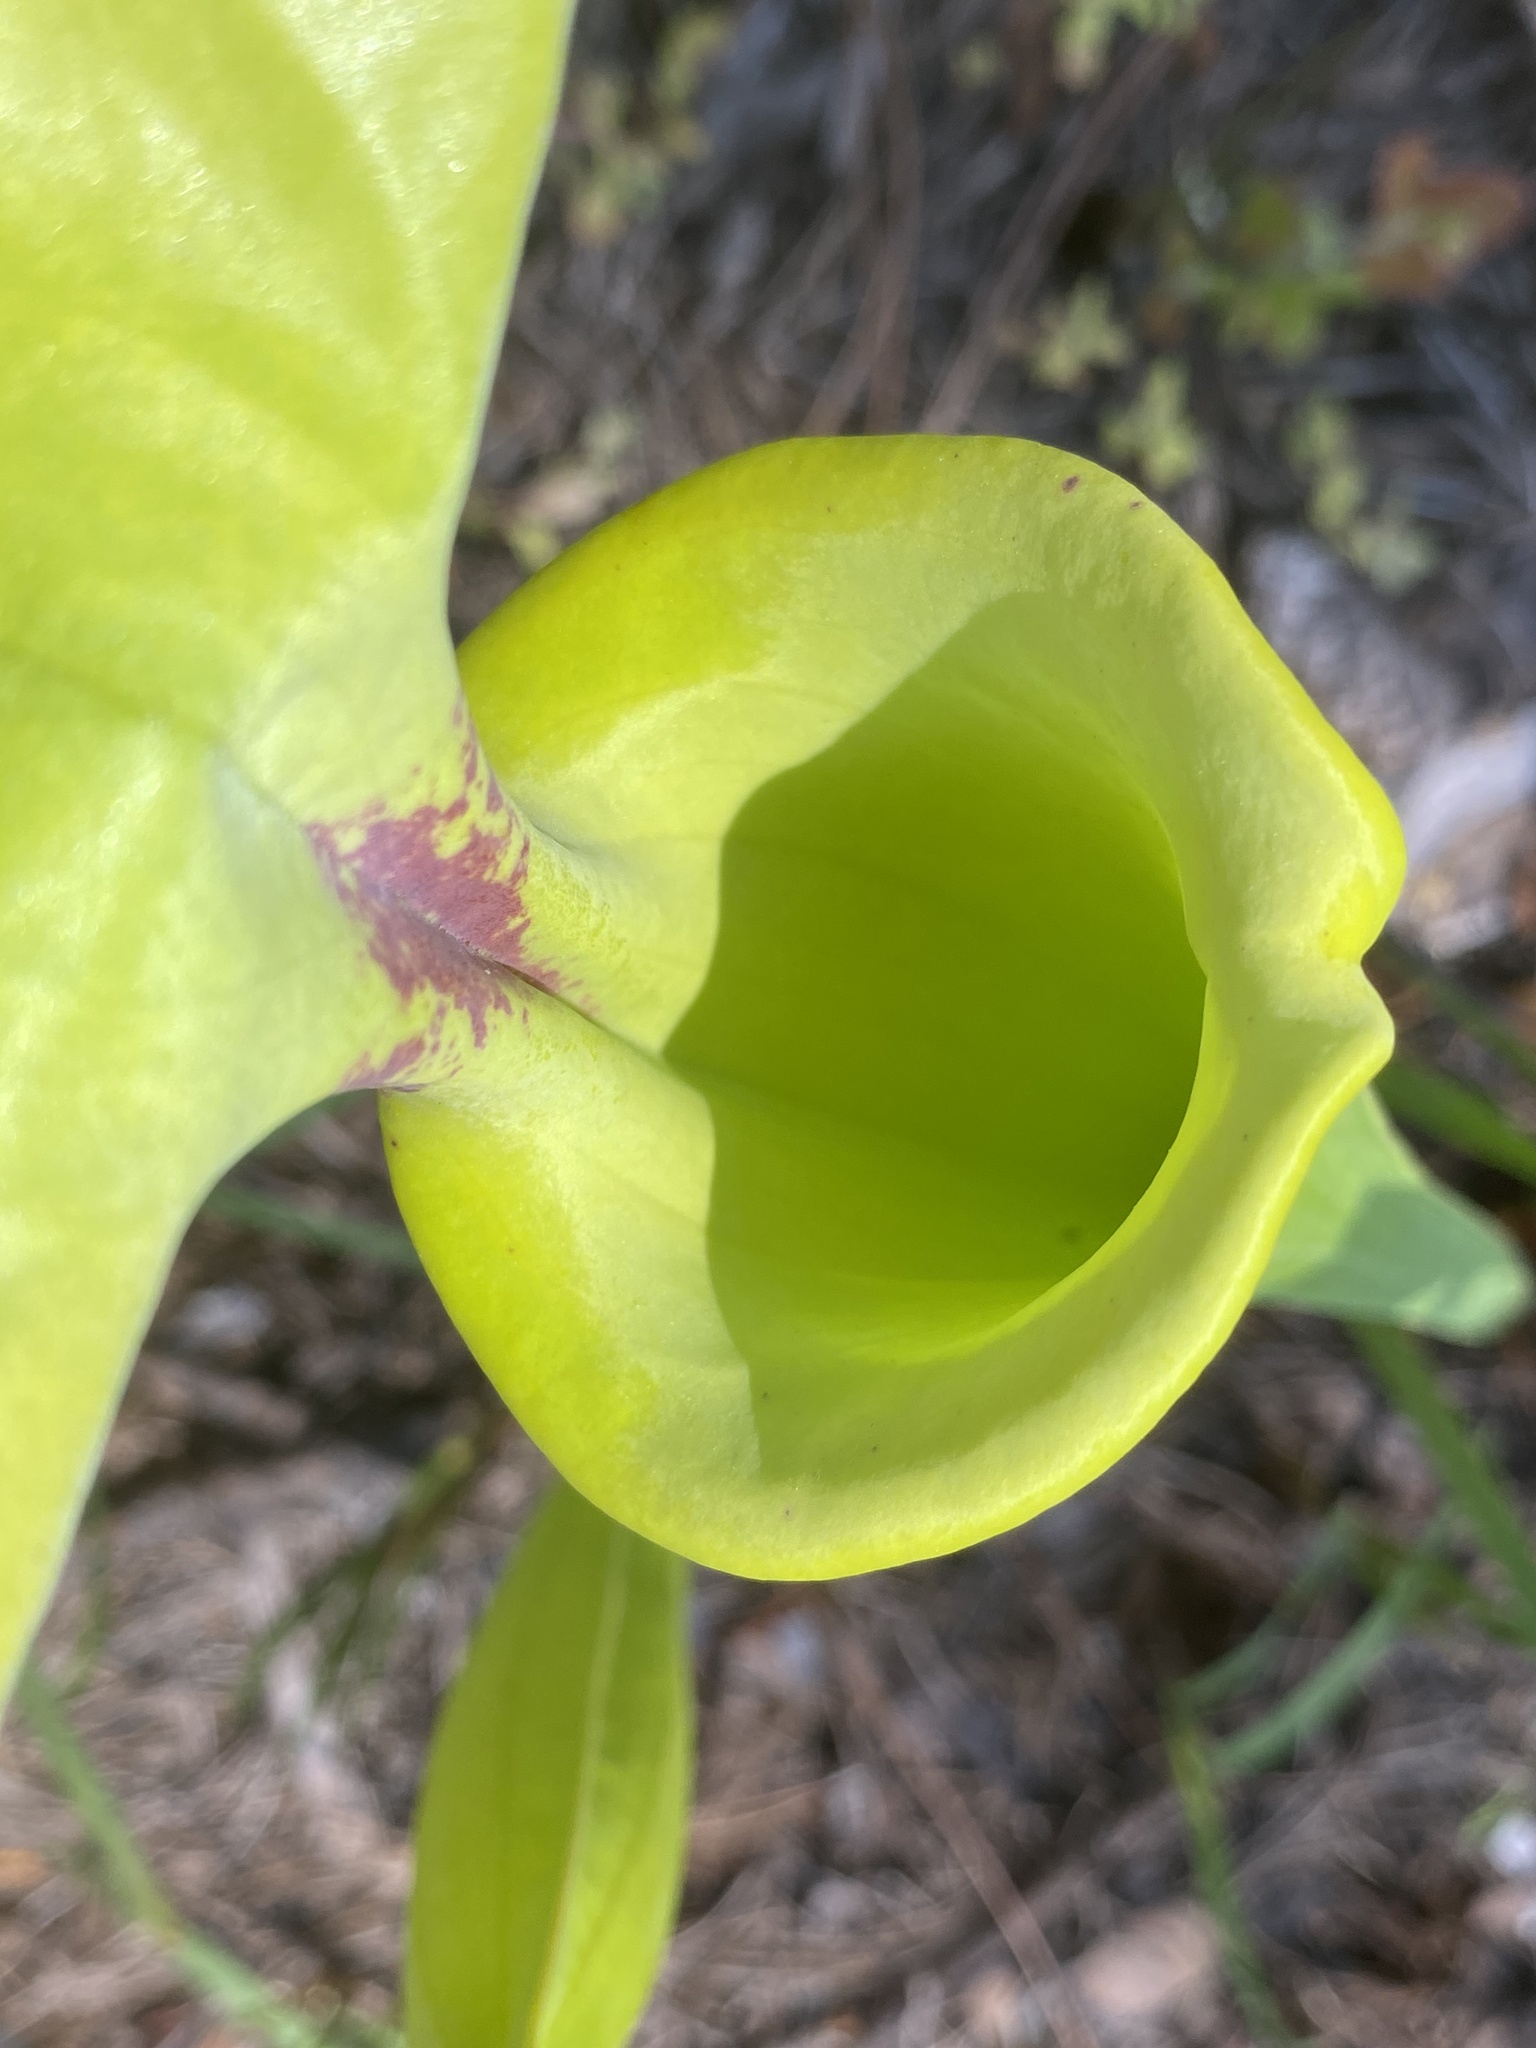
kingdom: Plantae
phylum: Tracheophyta
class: Magnoliopsida
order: Ericales
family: Sarraceniaceae
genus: Sarracenia
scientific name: Sarracenia flava
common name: Trumpets
